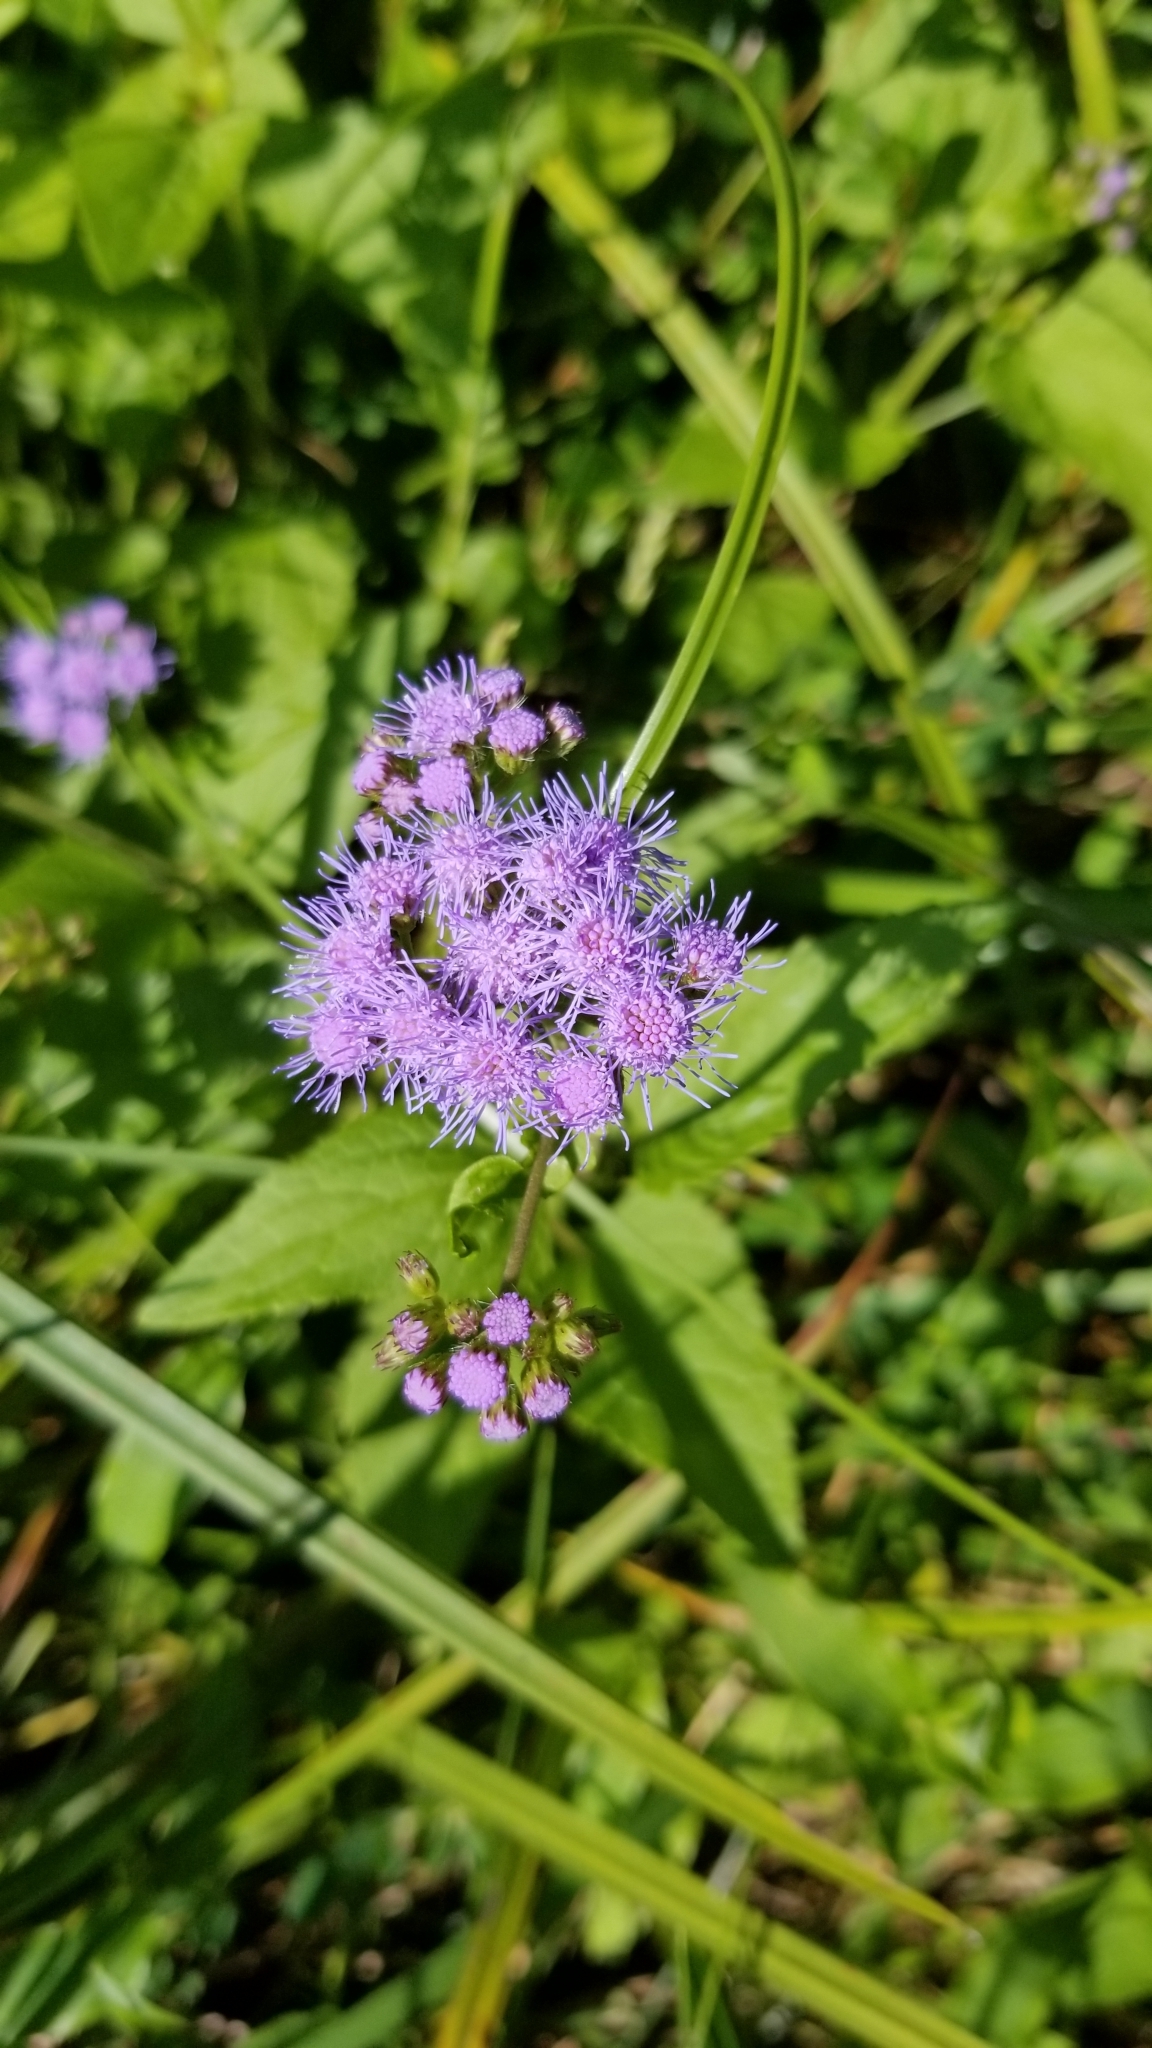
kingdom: Plantae
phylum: Tracheophyta
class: Magnoliopsida
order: Asterales
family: Asteraceae
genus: Conoclinium
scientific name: Conoclinium coelestinum
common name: Blue mistflower
